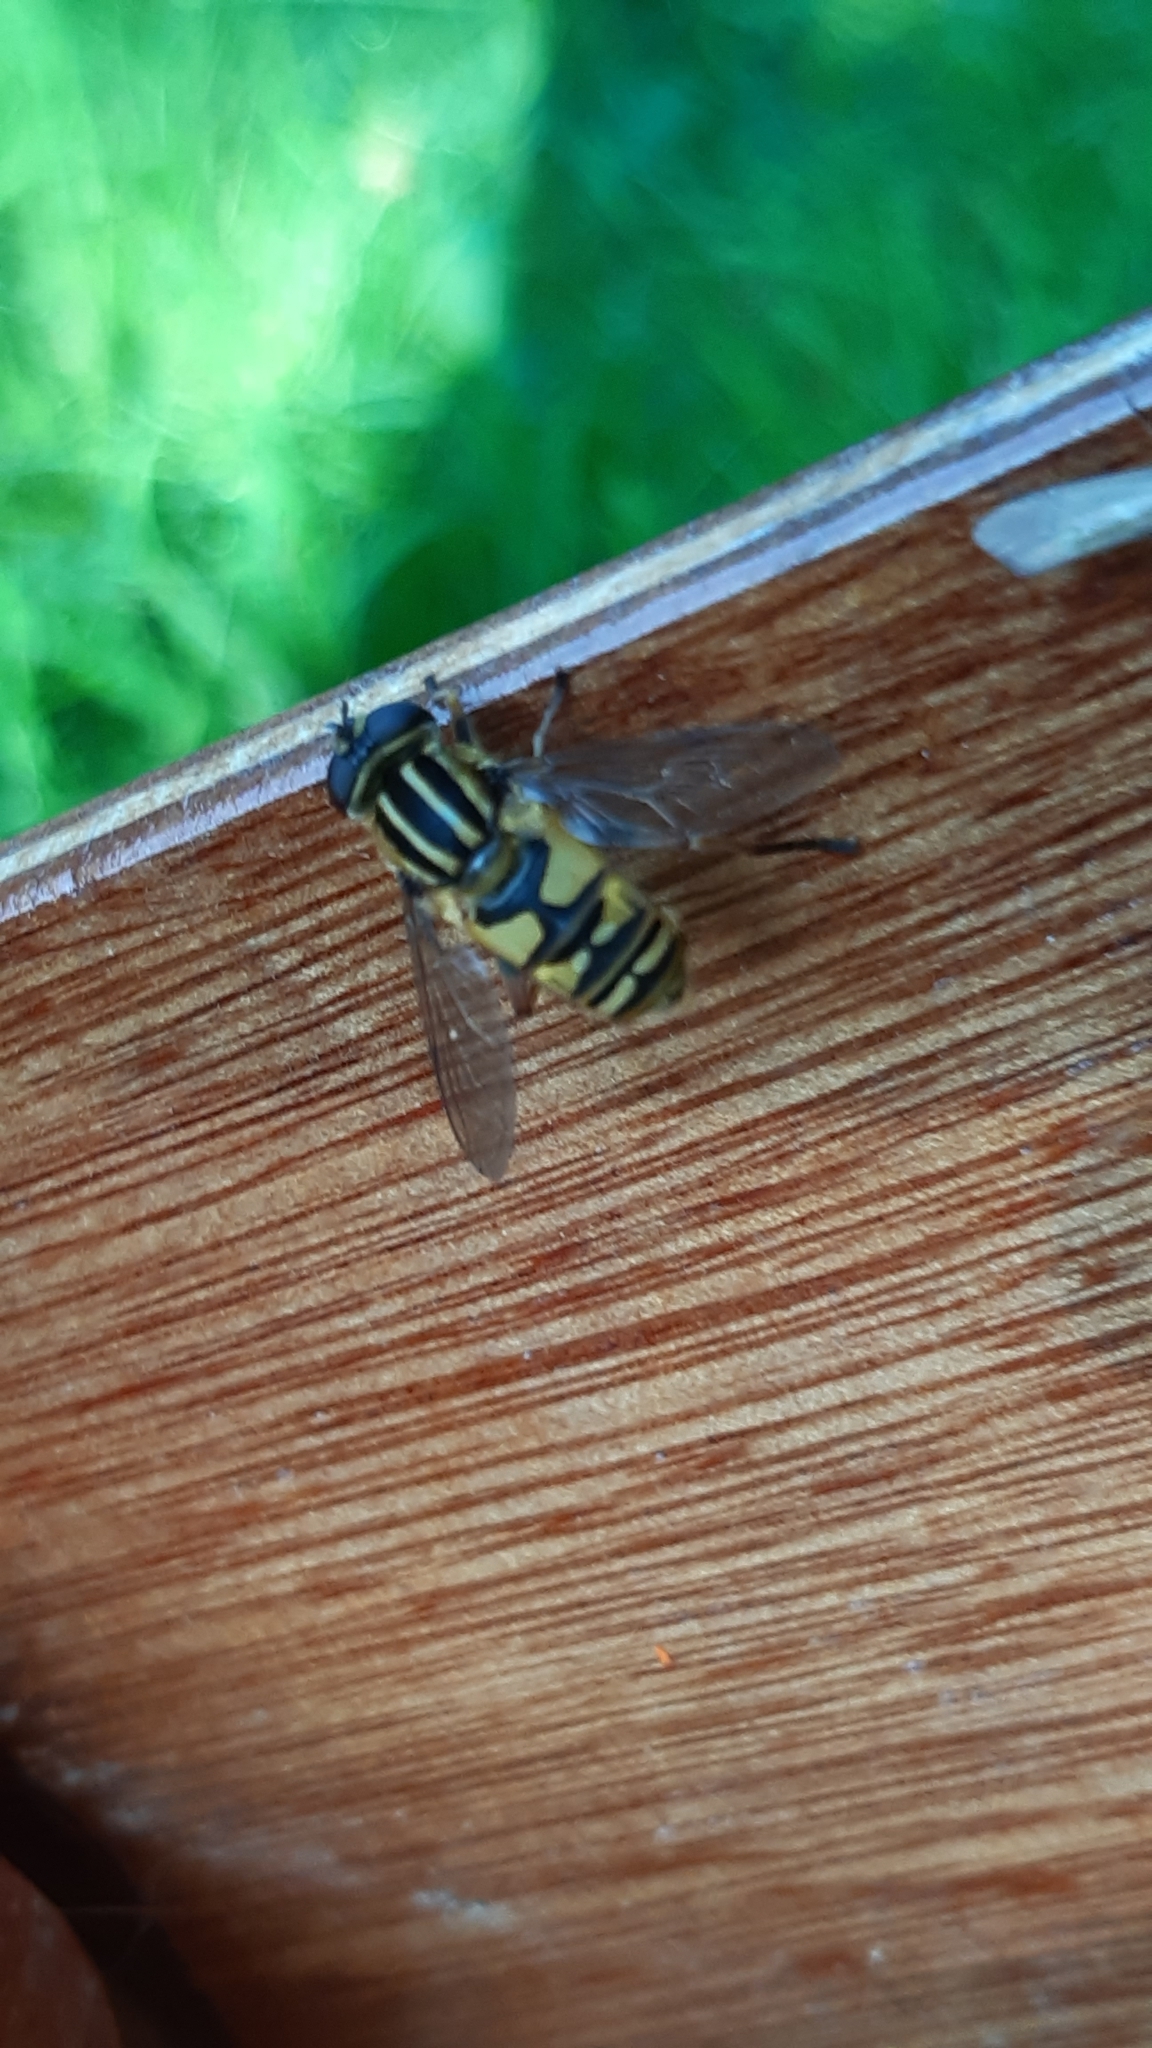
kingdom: Animalia
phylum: Arthropoda
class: Insecta
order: Diptera
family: Syrphidae
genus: Helophilus
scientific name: Helophilus pendulus
